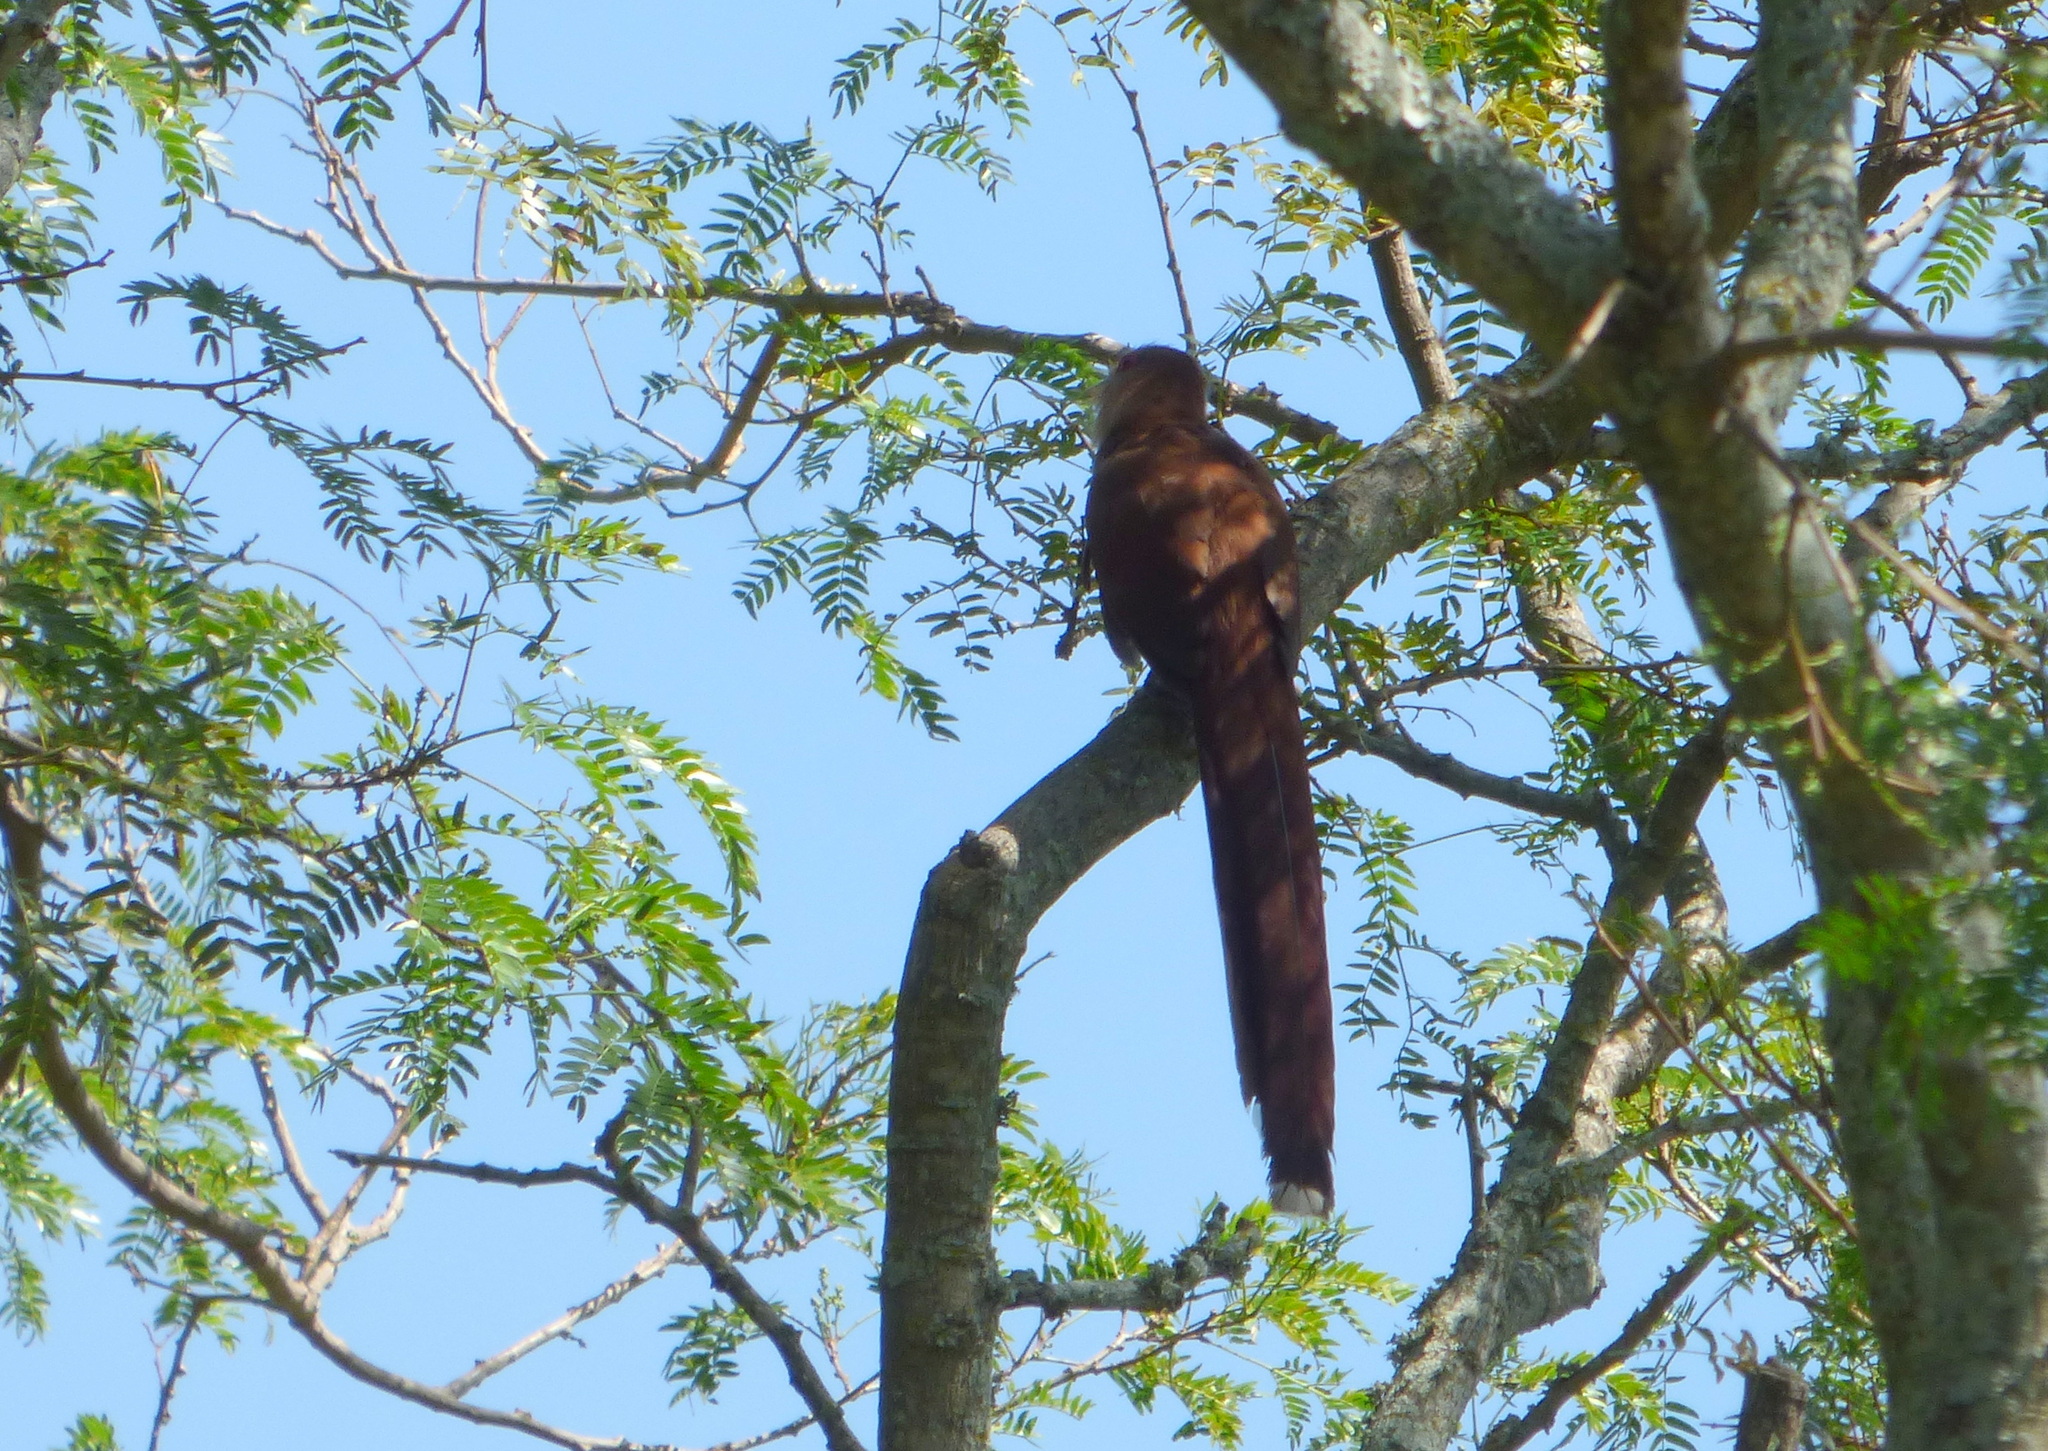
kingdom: Animalia
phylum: Chordata
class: Aves
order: Cuculiformes
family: Cuculidae
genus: Piaya
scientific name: Piaya cayana
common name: Squirrel cuckoo
